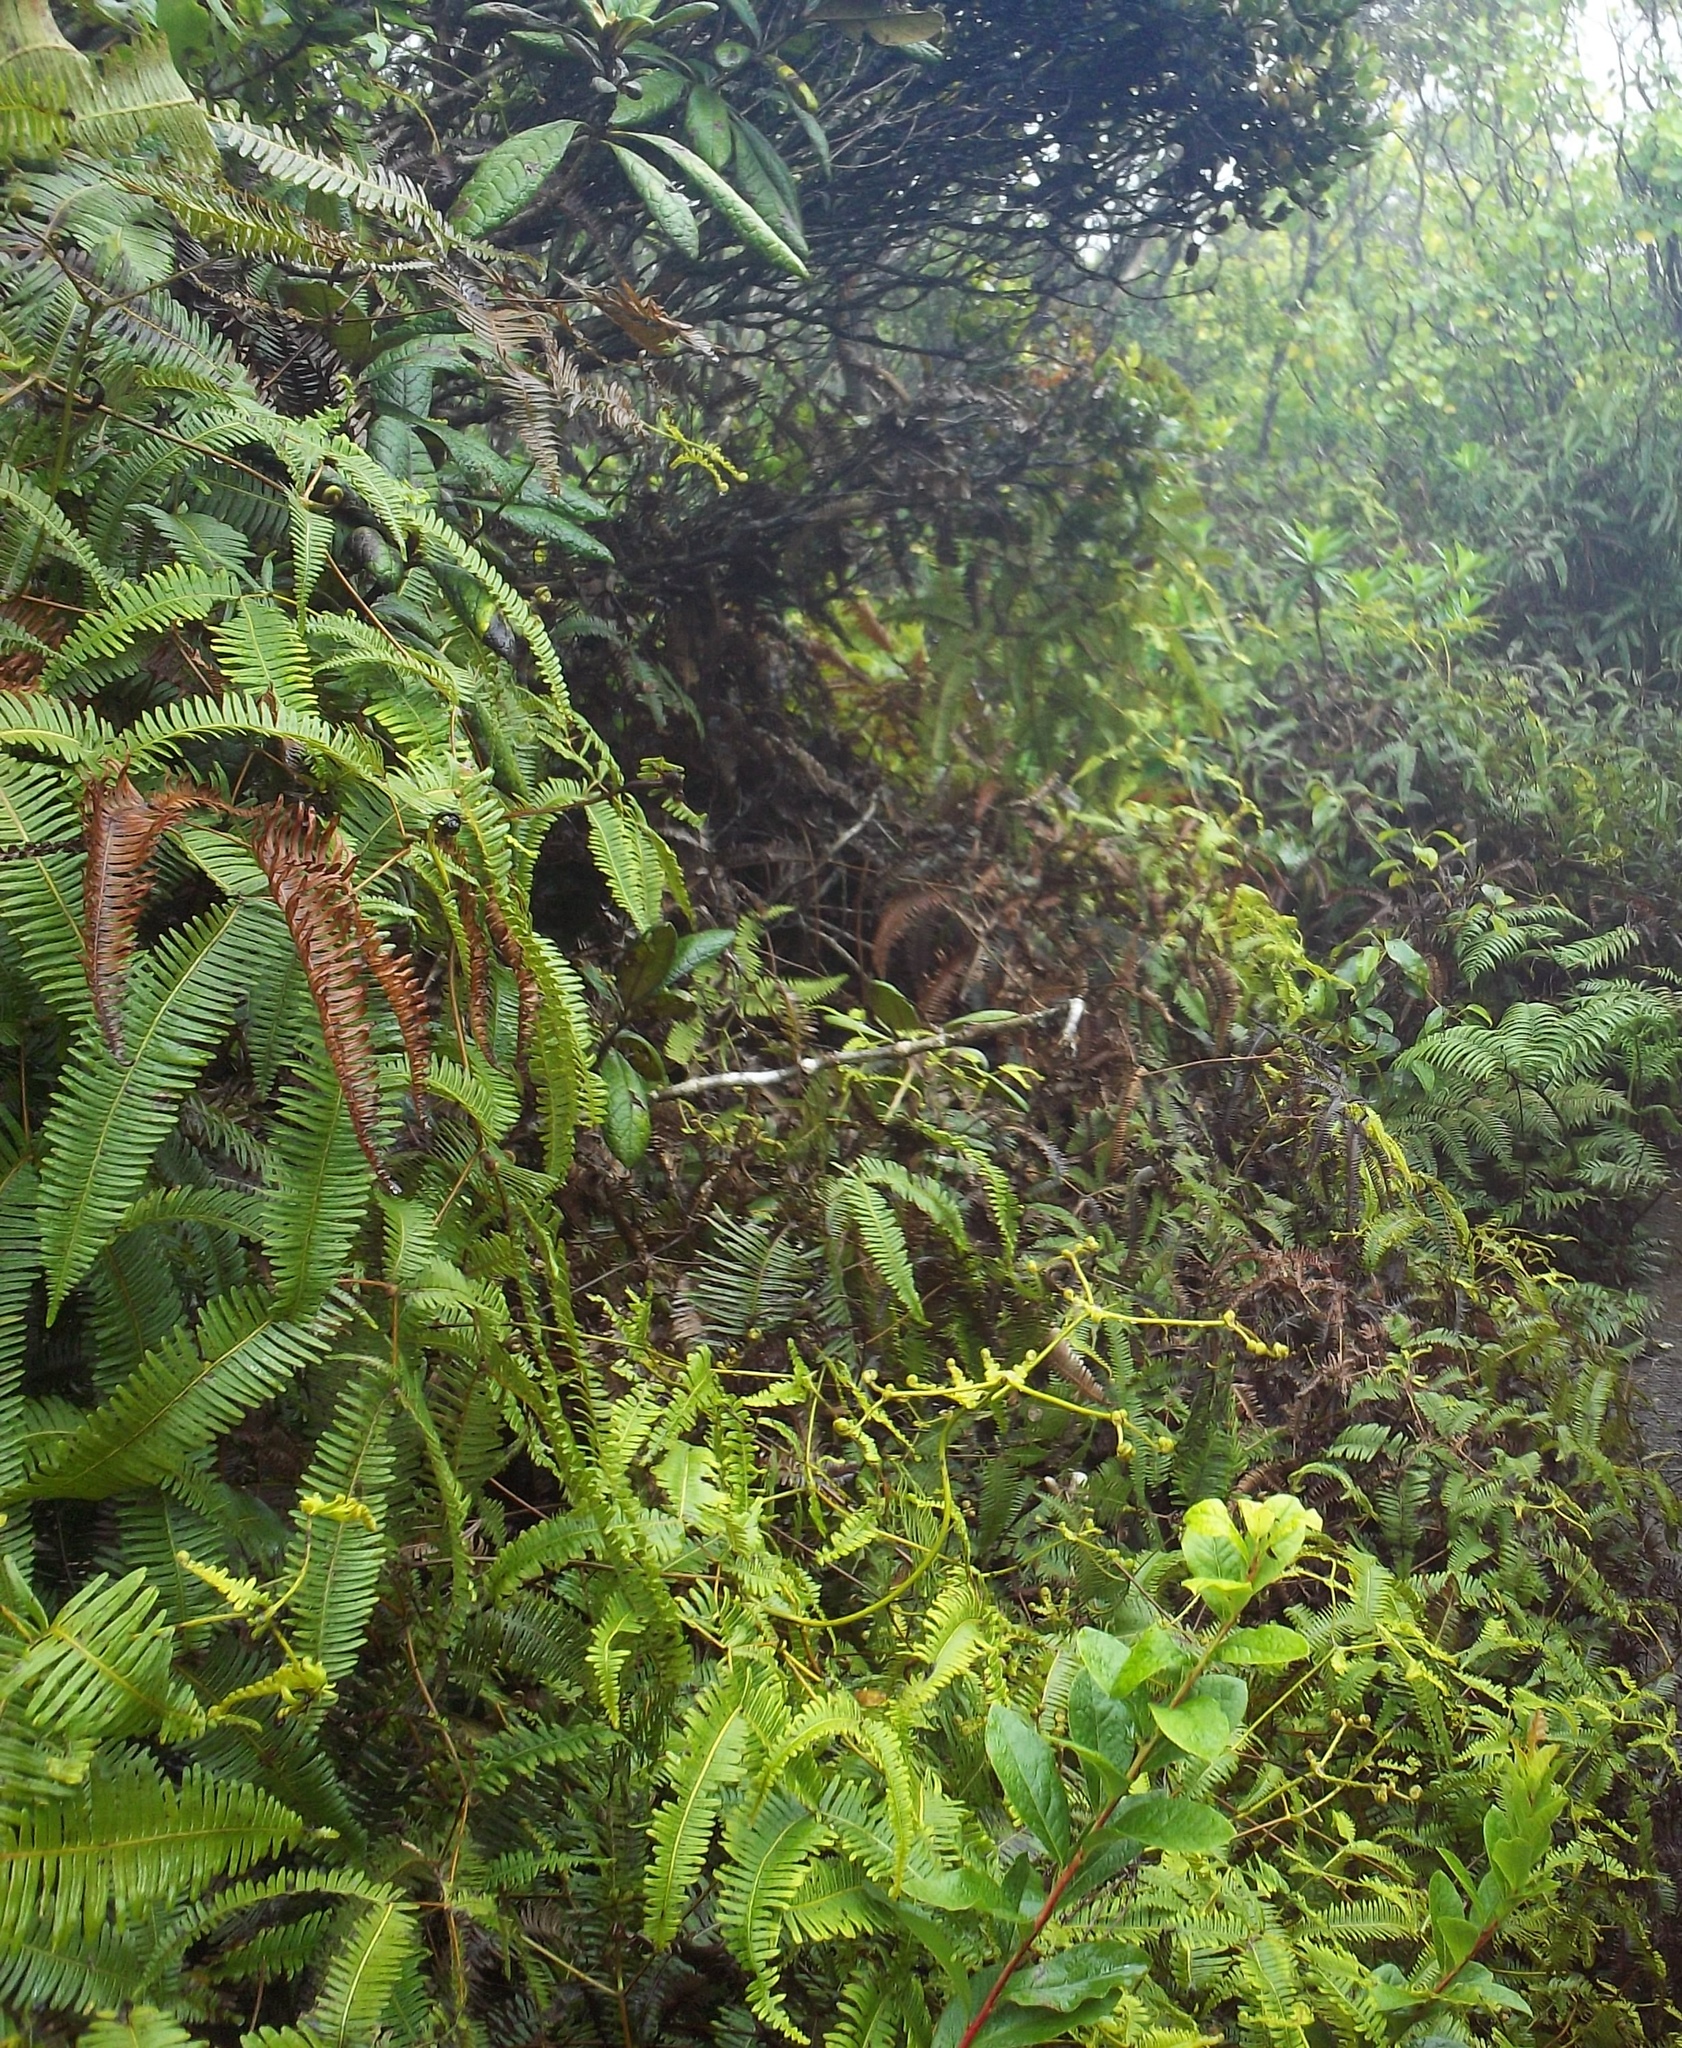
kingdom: Plantae
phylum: Tracheophyta
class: Polypodiopsida
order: Gleicheniales
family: Gleicheniaceae
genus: Dicranopteris
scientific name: Dicranopteris linearis
